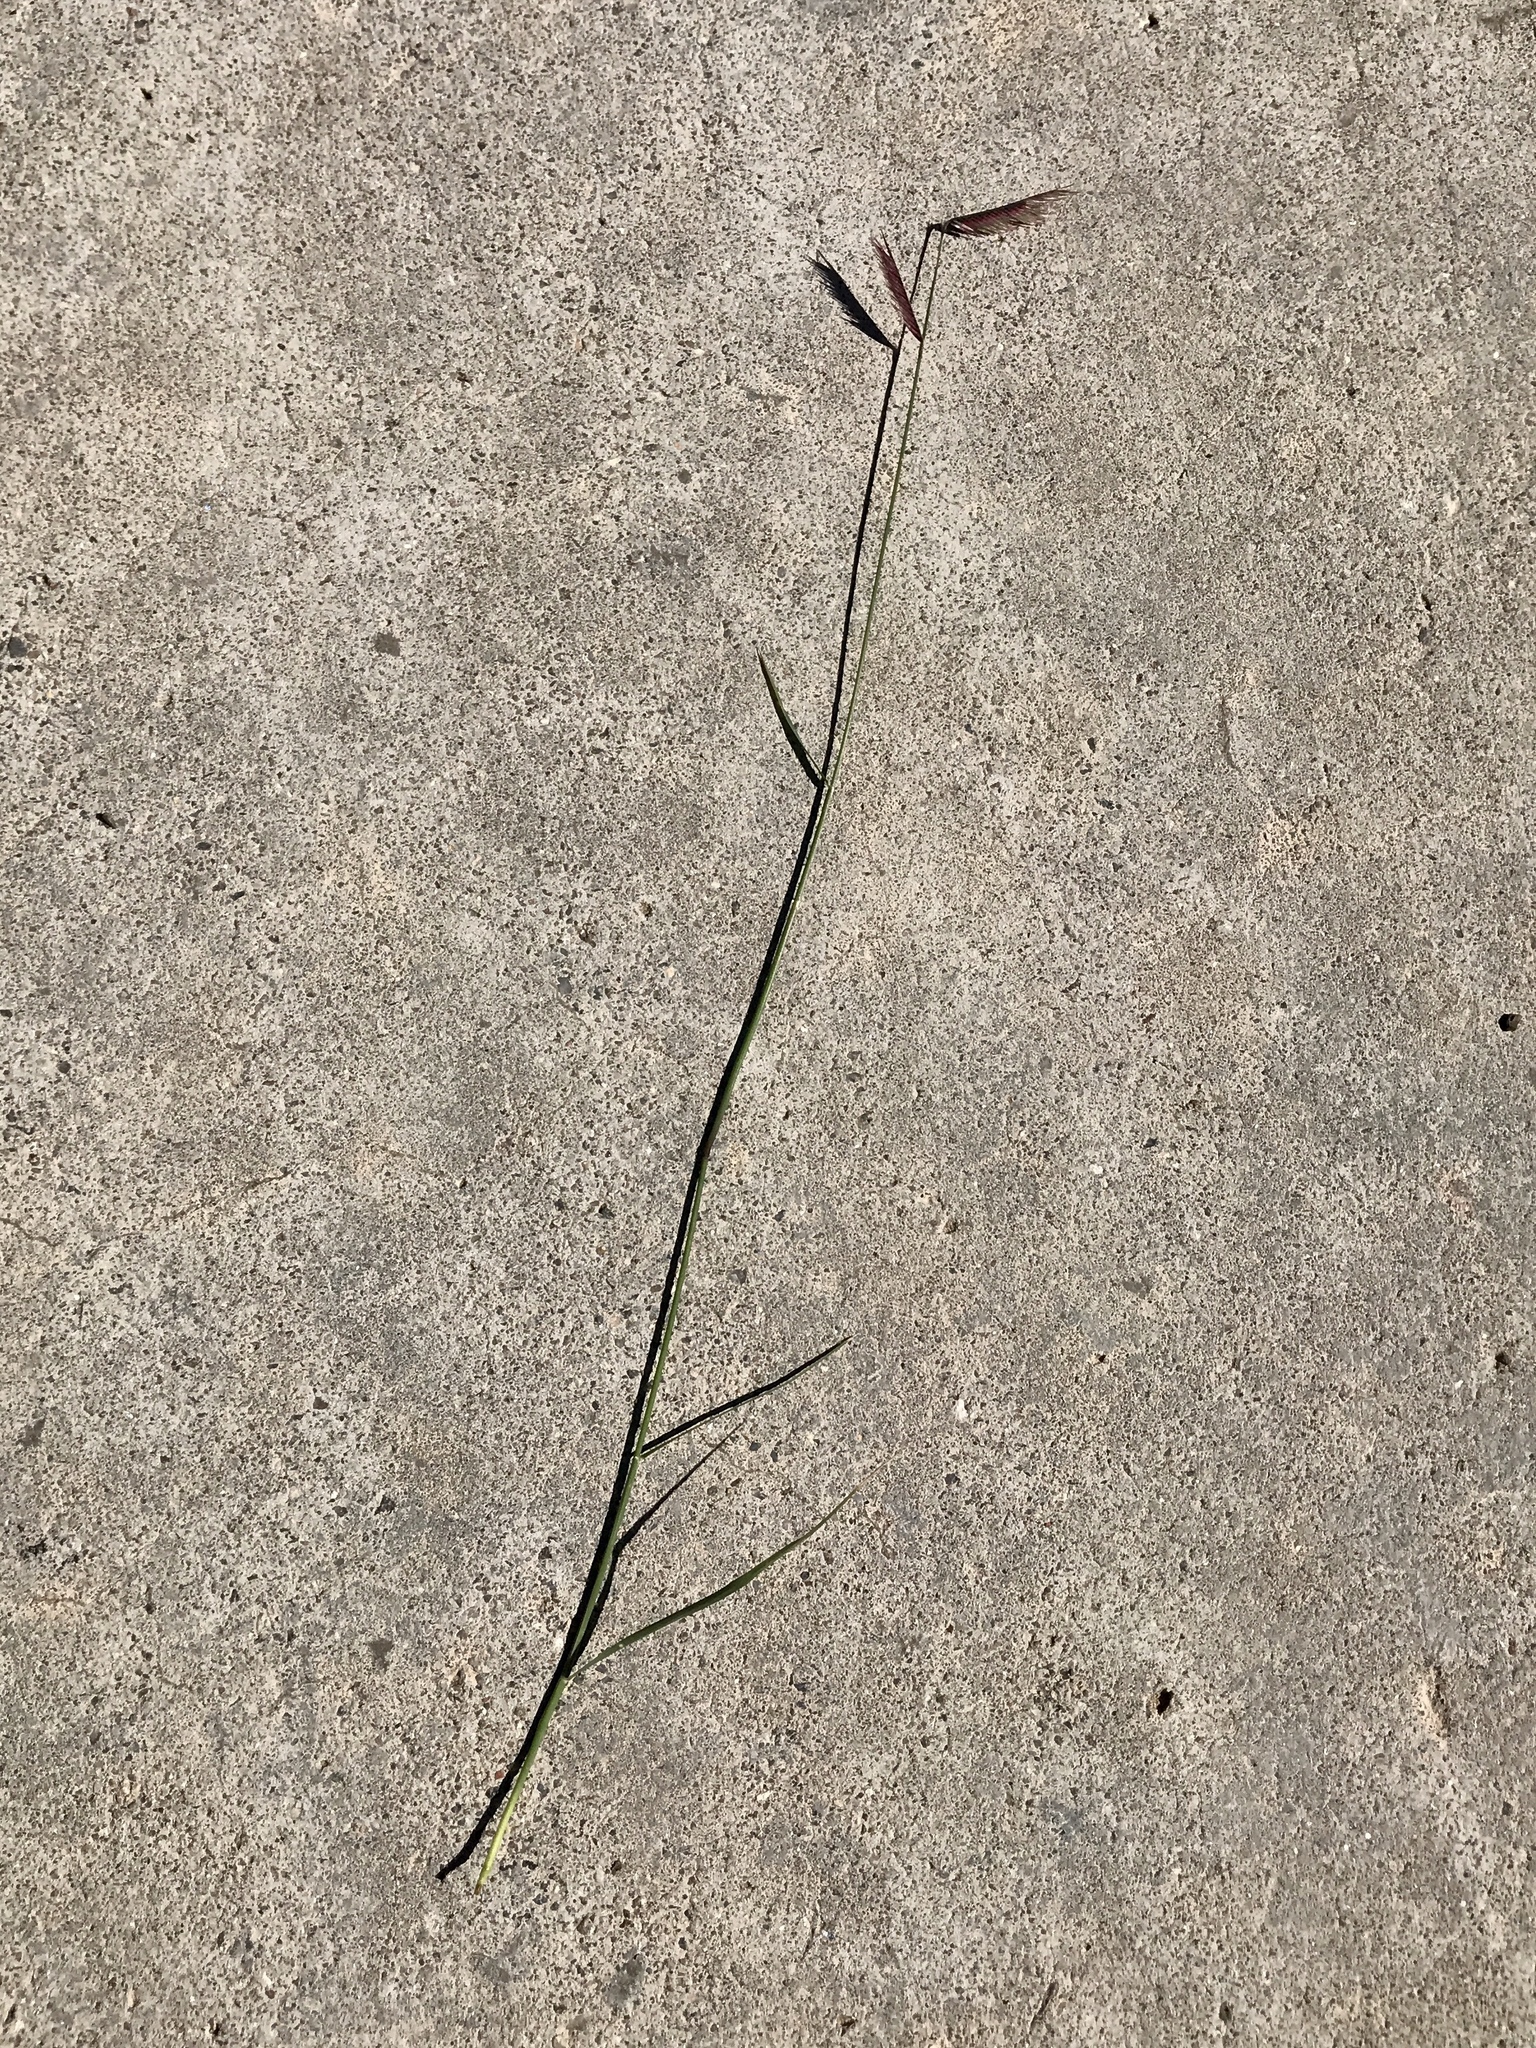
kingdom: Plantae
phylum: Tracheophyta
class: Liliopsida
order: Poales
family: Poaceae
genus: Bouteloua
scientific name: Bouteloua gracilis
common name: Blue grama
